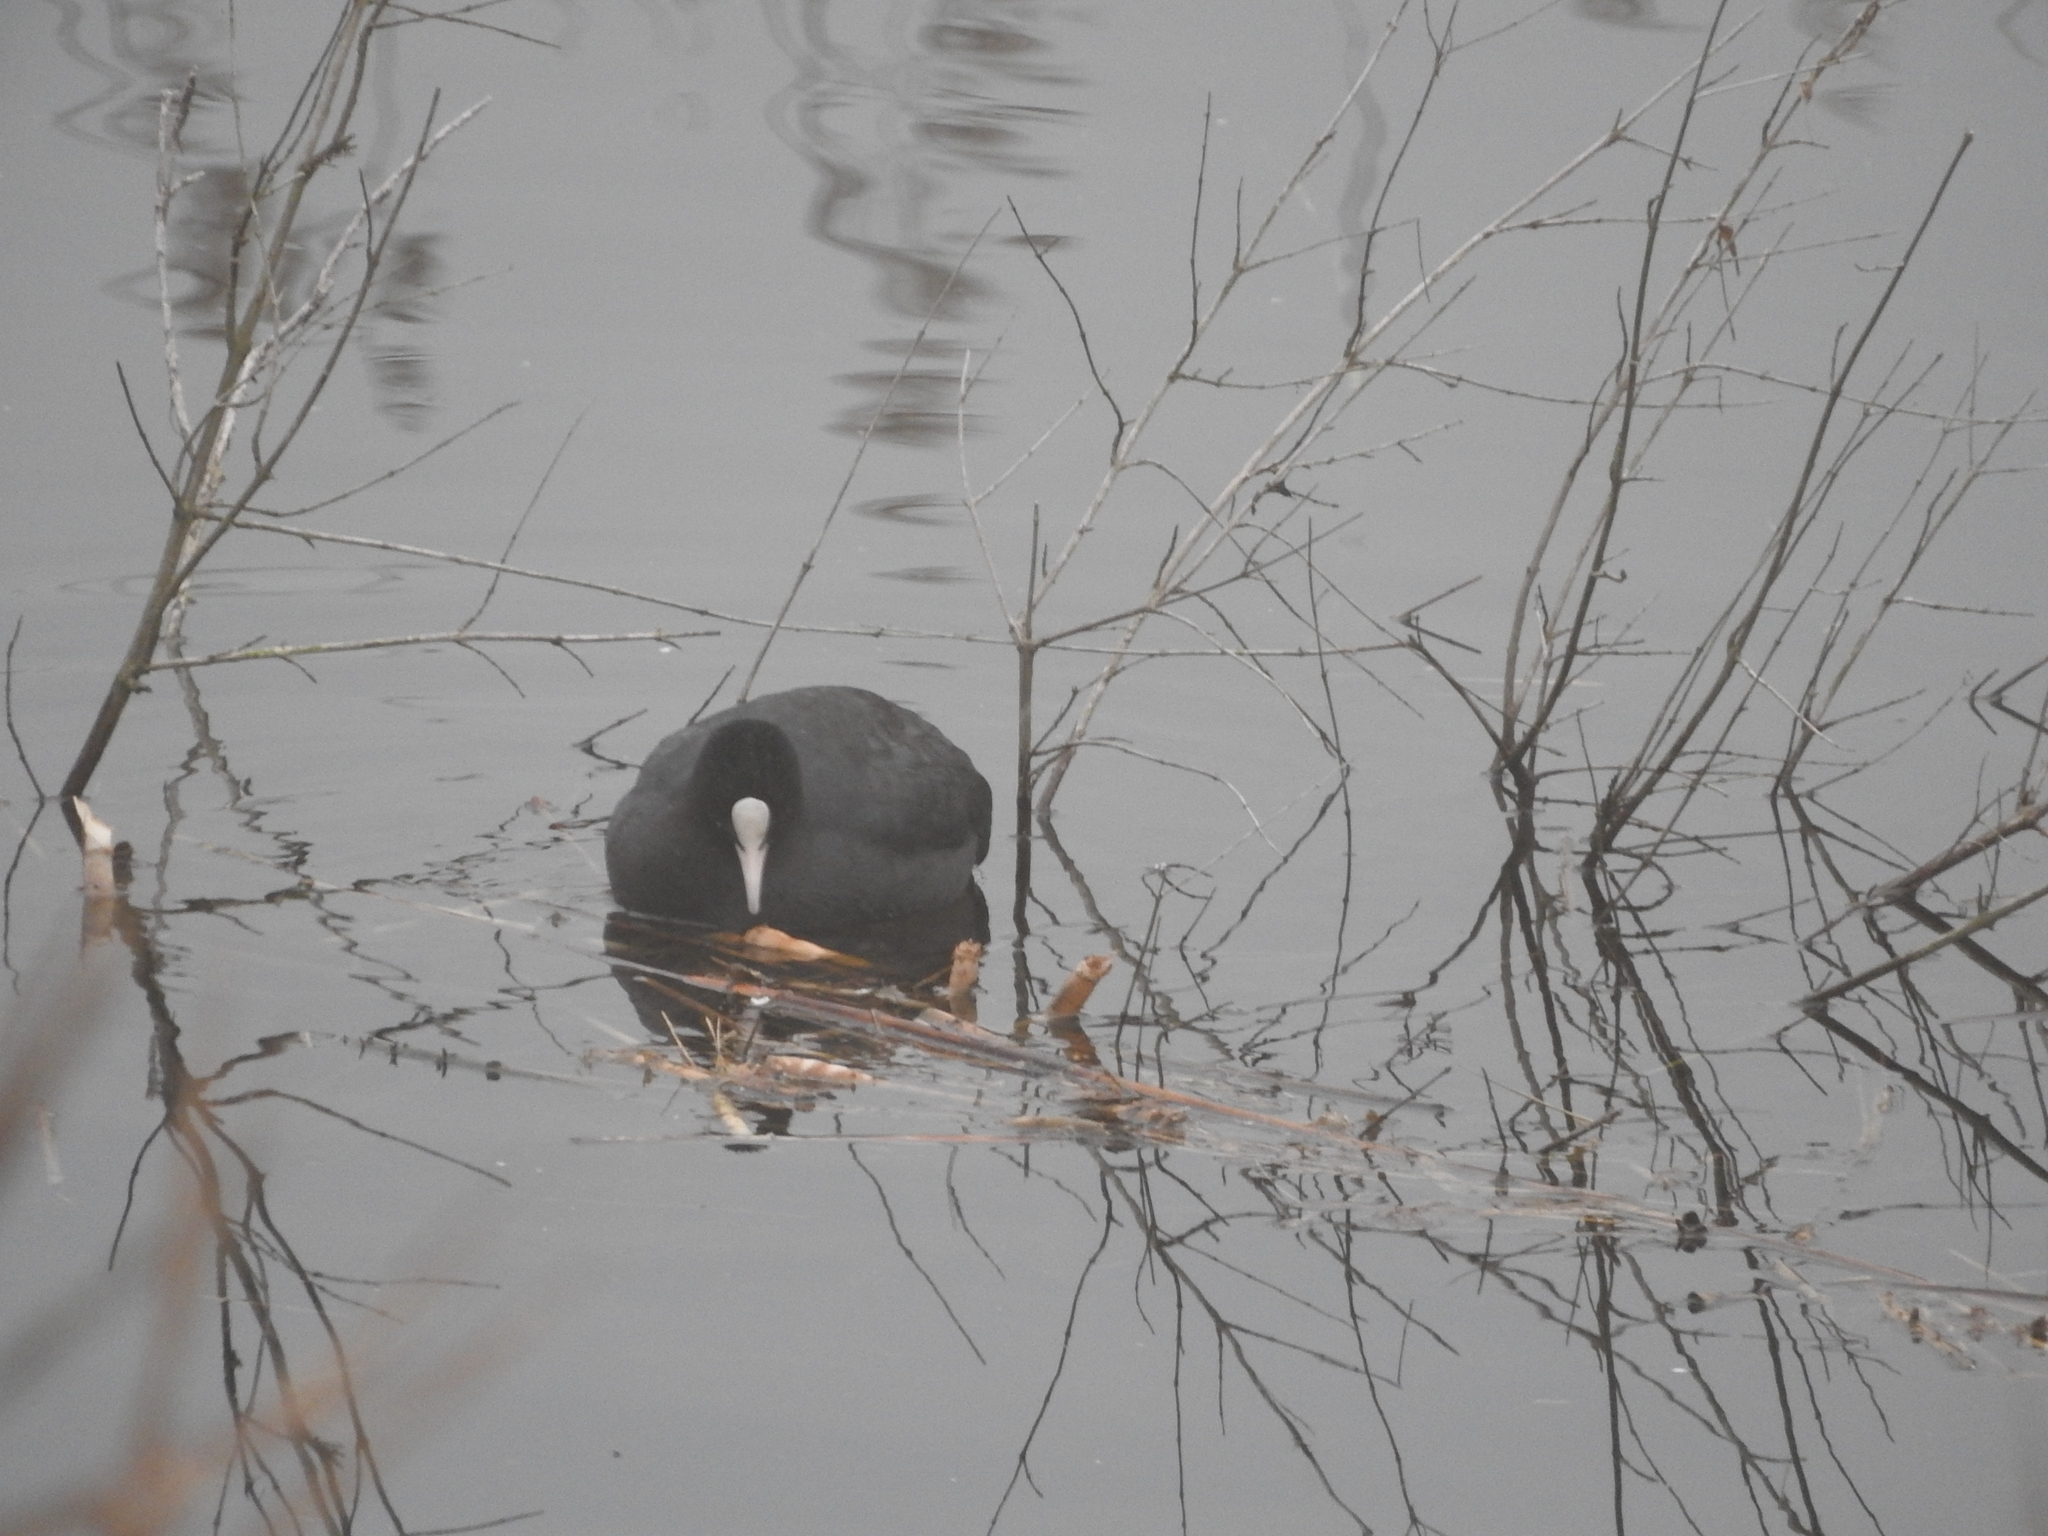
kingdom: Animalia
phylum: Chordata
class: Aves
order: Gruiformes
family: Rallidae
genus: Fulica
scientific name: Fulica atra
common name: Eurasian coot
